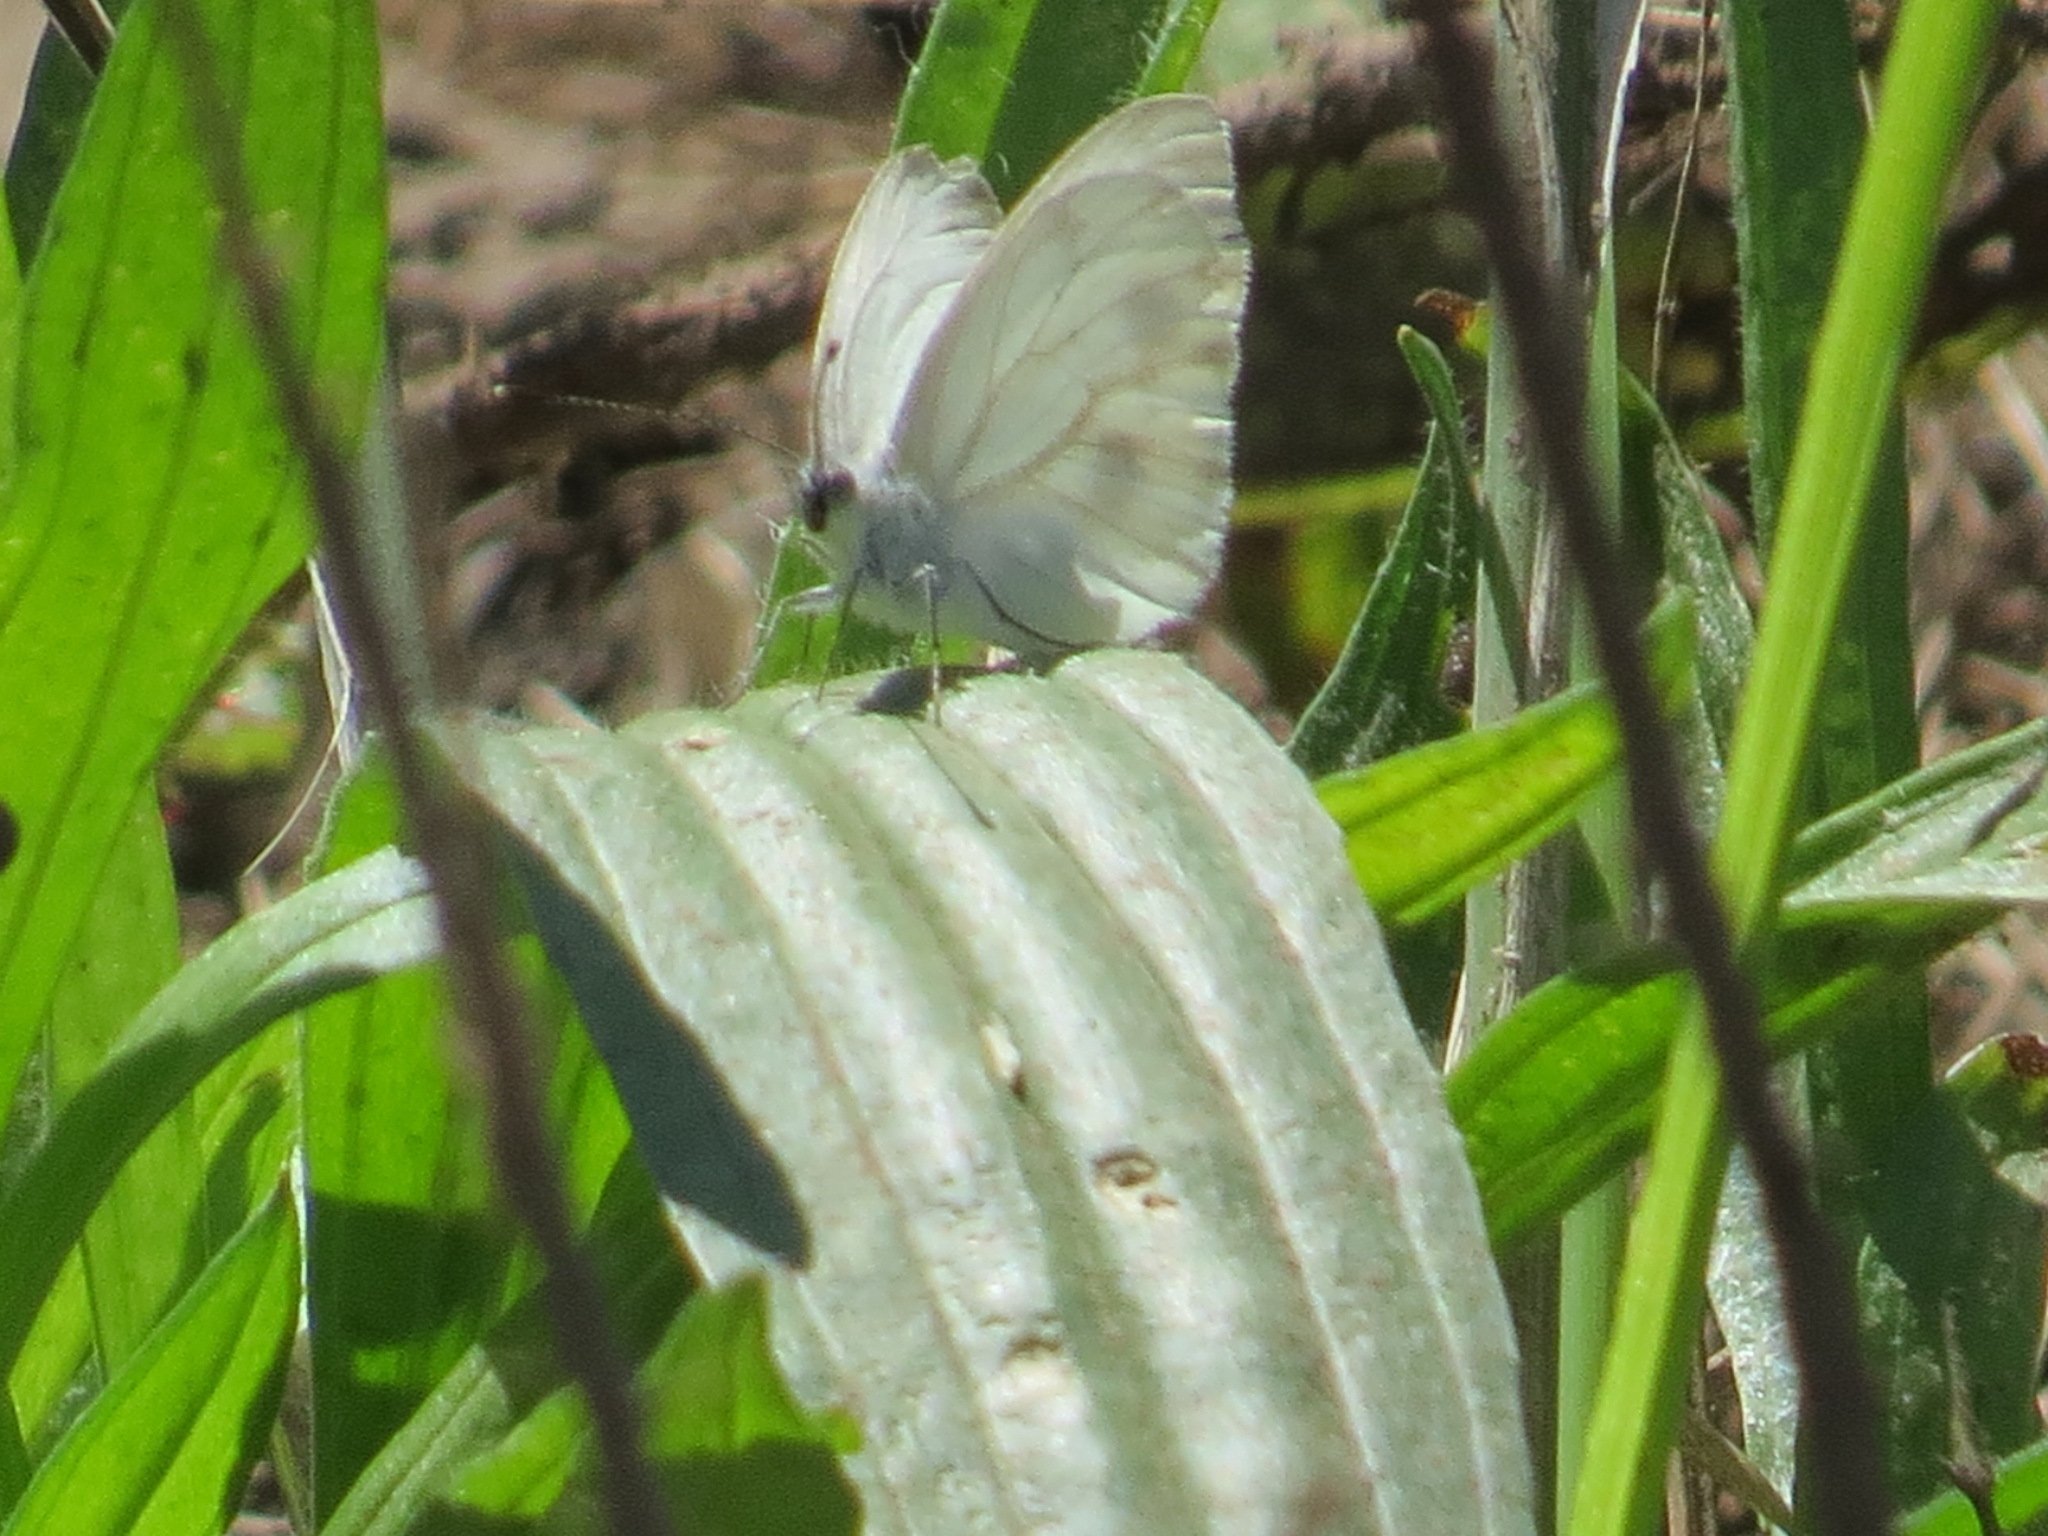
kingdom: Animalia
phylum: Arthropoda
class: Insecta
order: Lepidoptera
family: Pieridae
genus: Pieris
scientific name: Pieris marginalis
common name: Margined white
